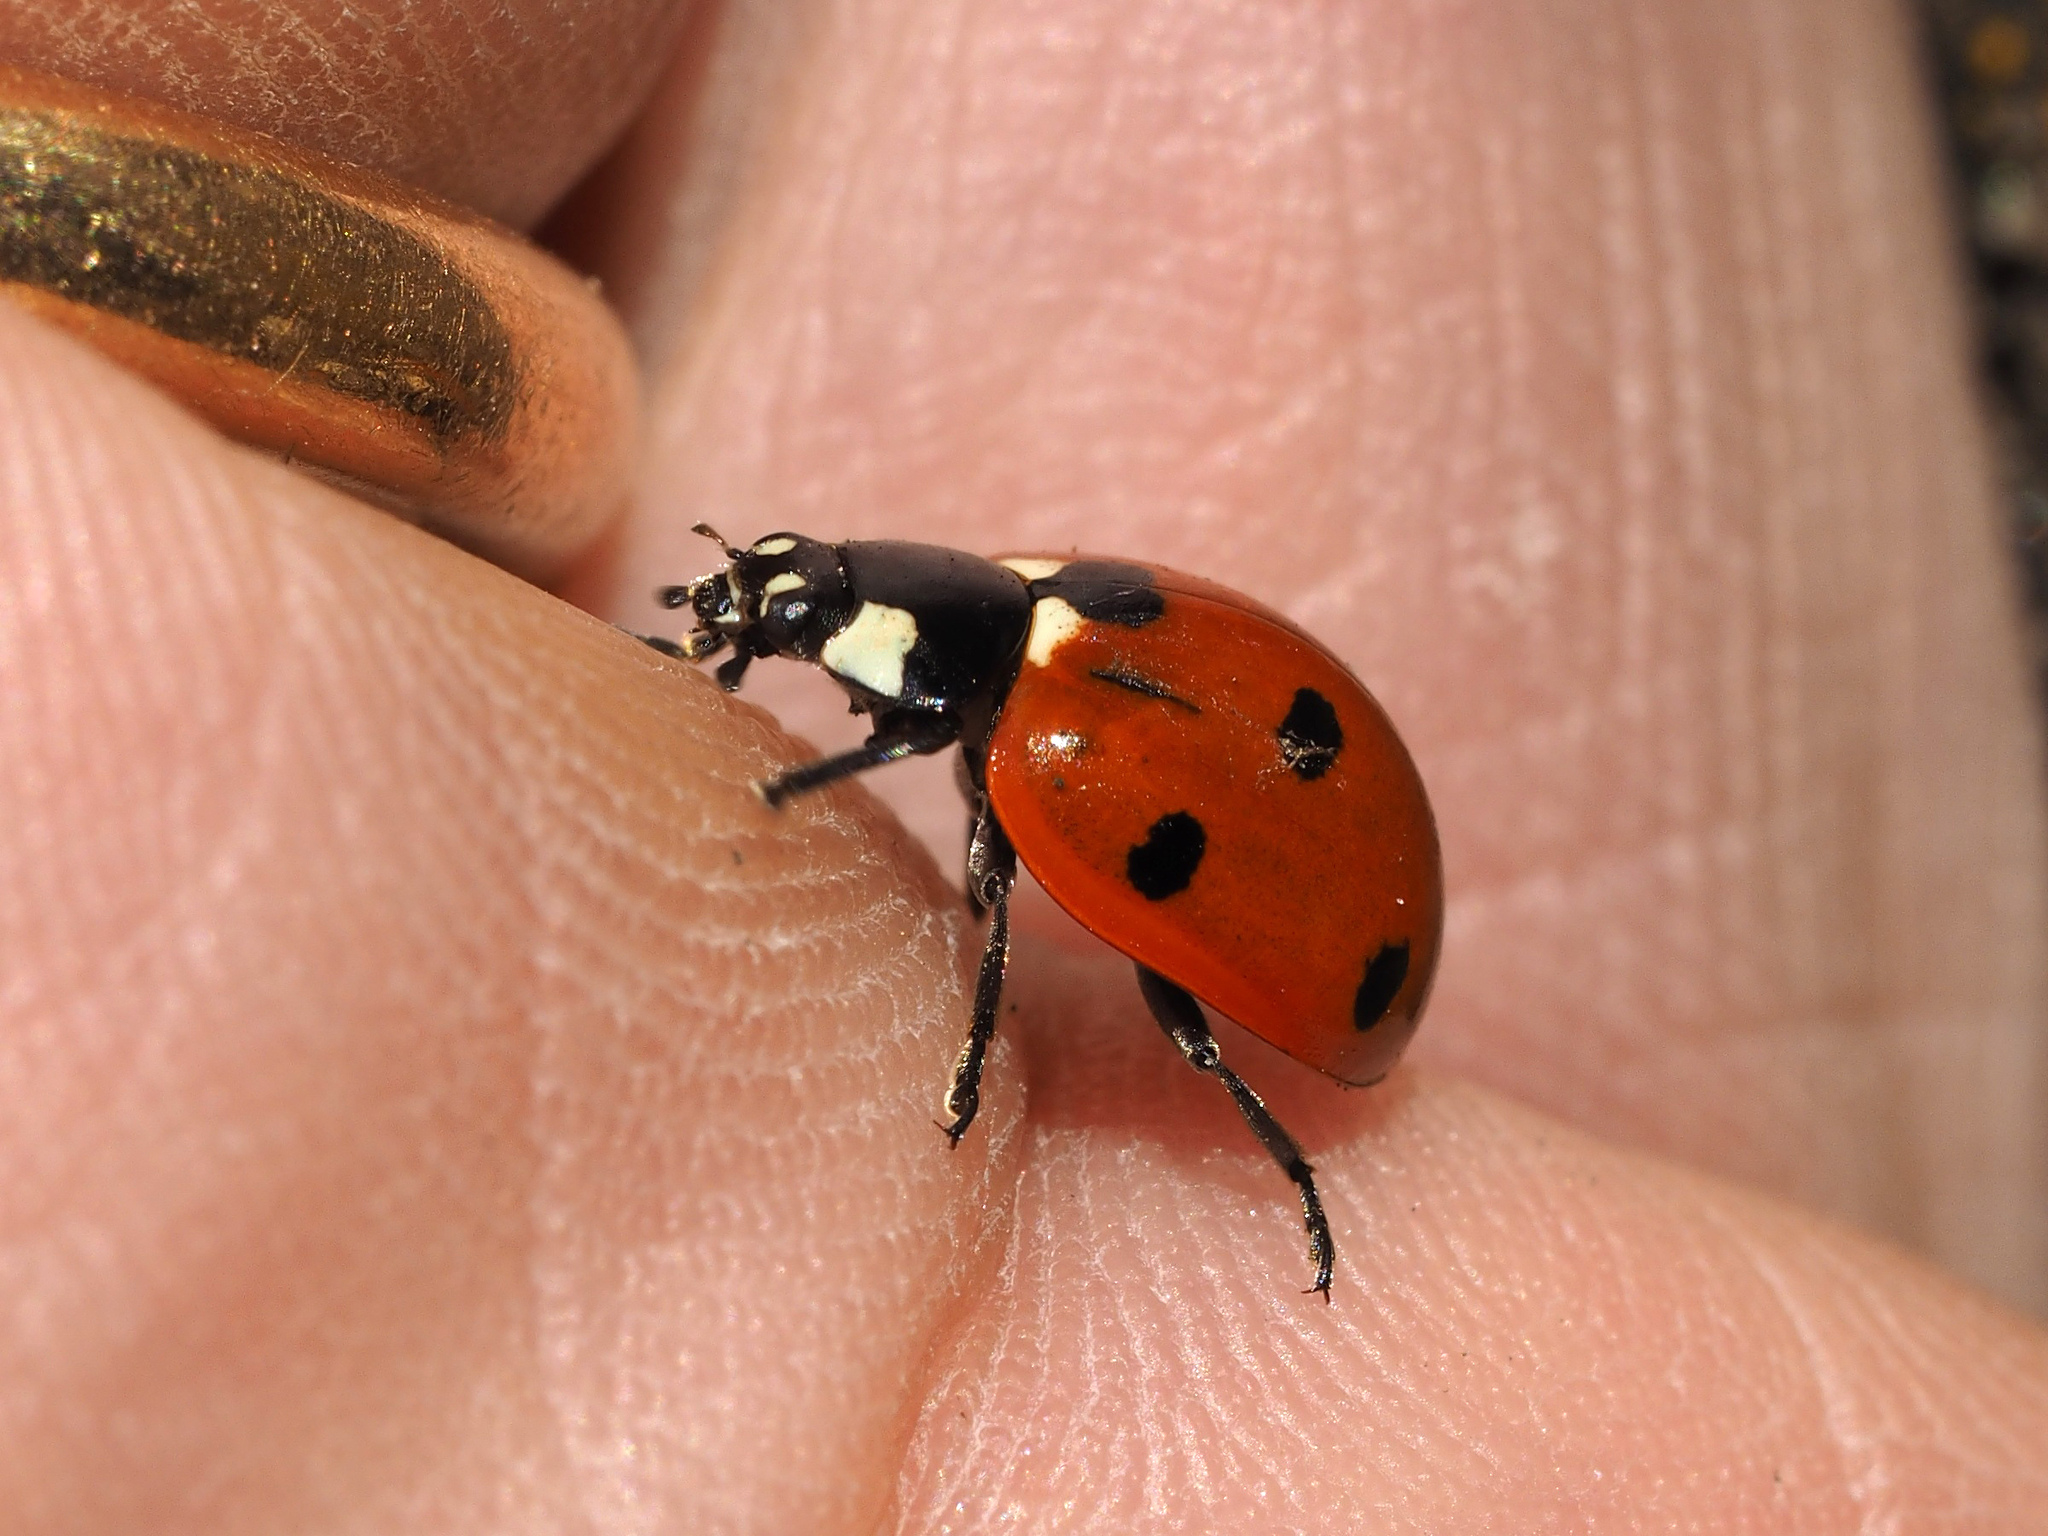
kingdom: Animalia
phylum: Arthropoda
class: Insecta
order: Coleoptera
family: Coccinellidae
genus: Coccinella
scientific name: Coccinella septempunctata
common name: Sevenspotted lady beetle
